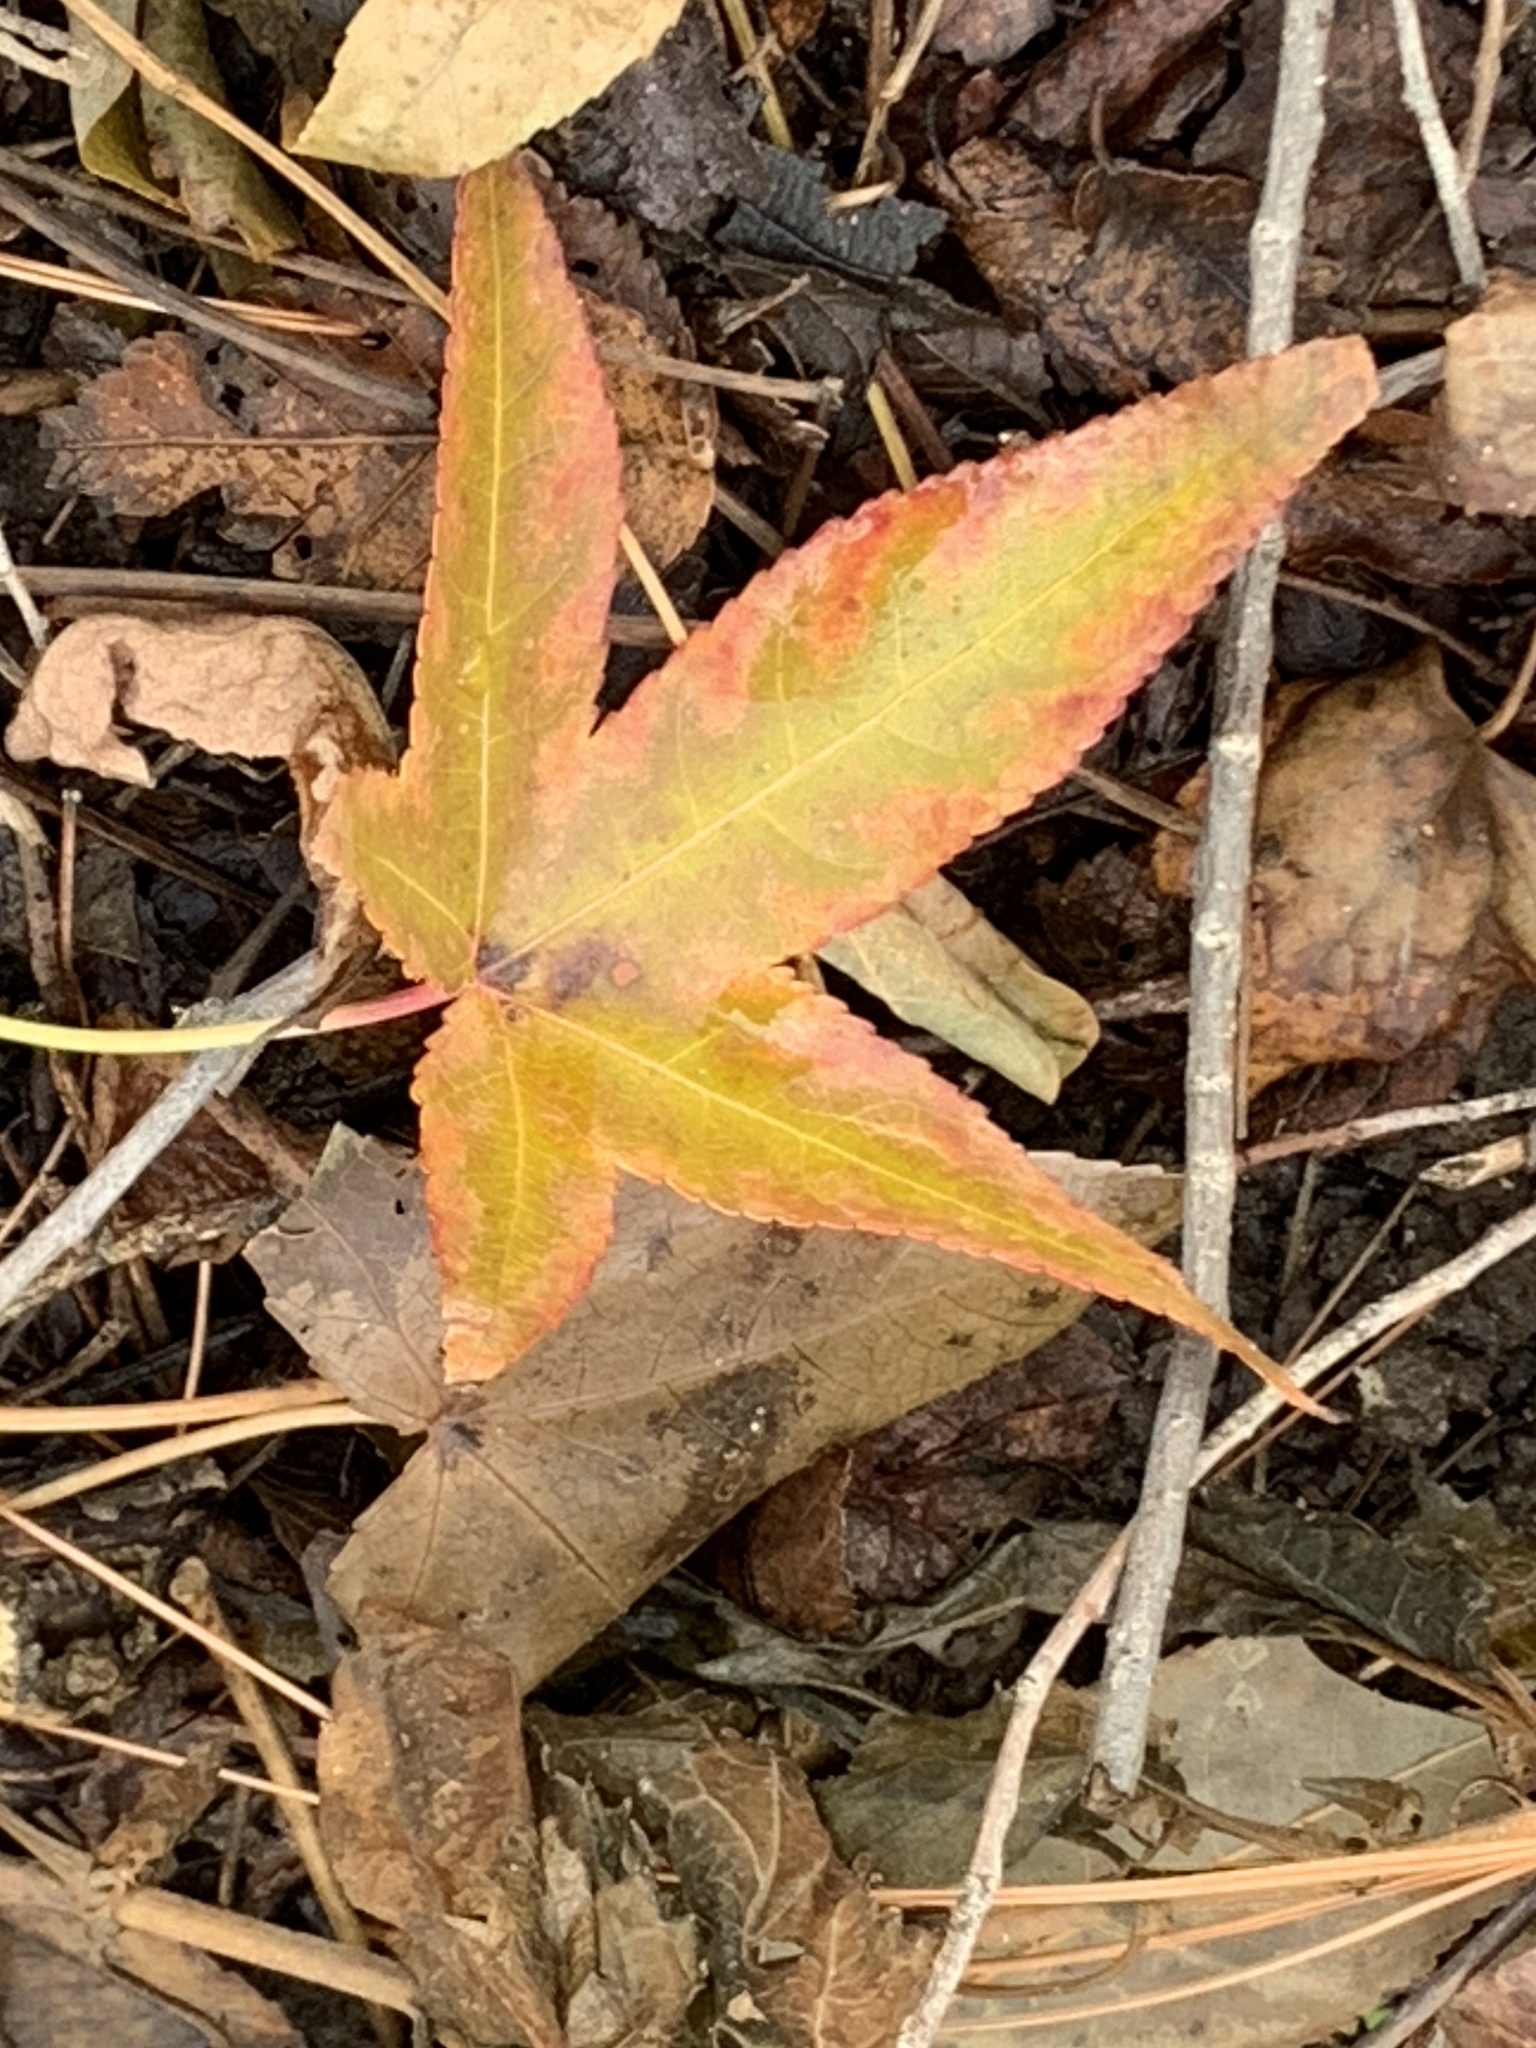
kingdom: Plantae
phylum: Tracheophyta
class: Magnoliopsida
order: Saxifragales
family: Altingiaceae
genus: Liquidambar
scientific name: Liquidambar styraciflua
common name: Sweet gum
